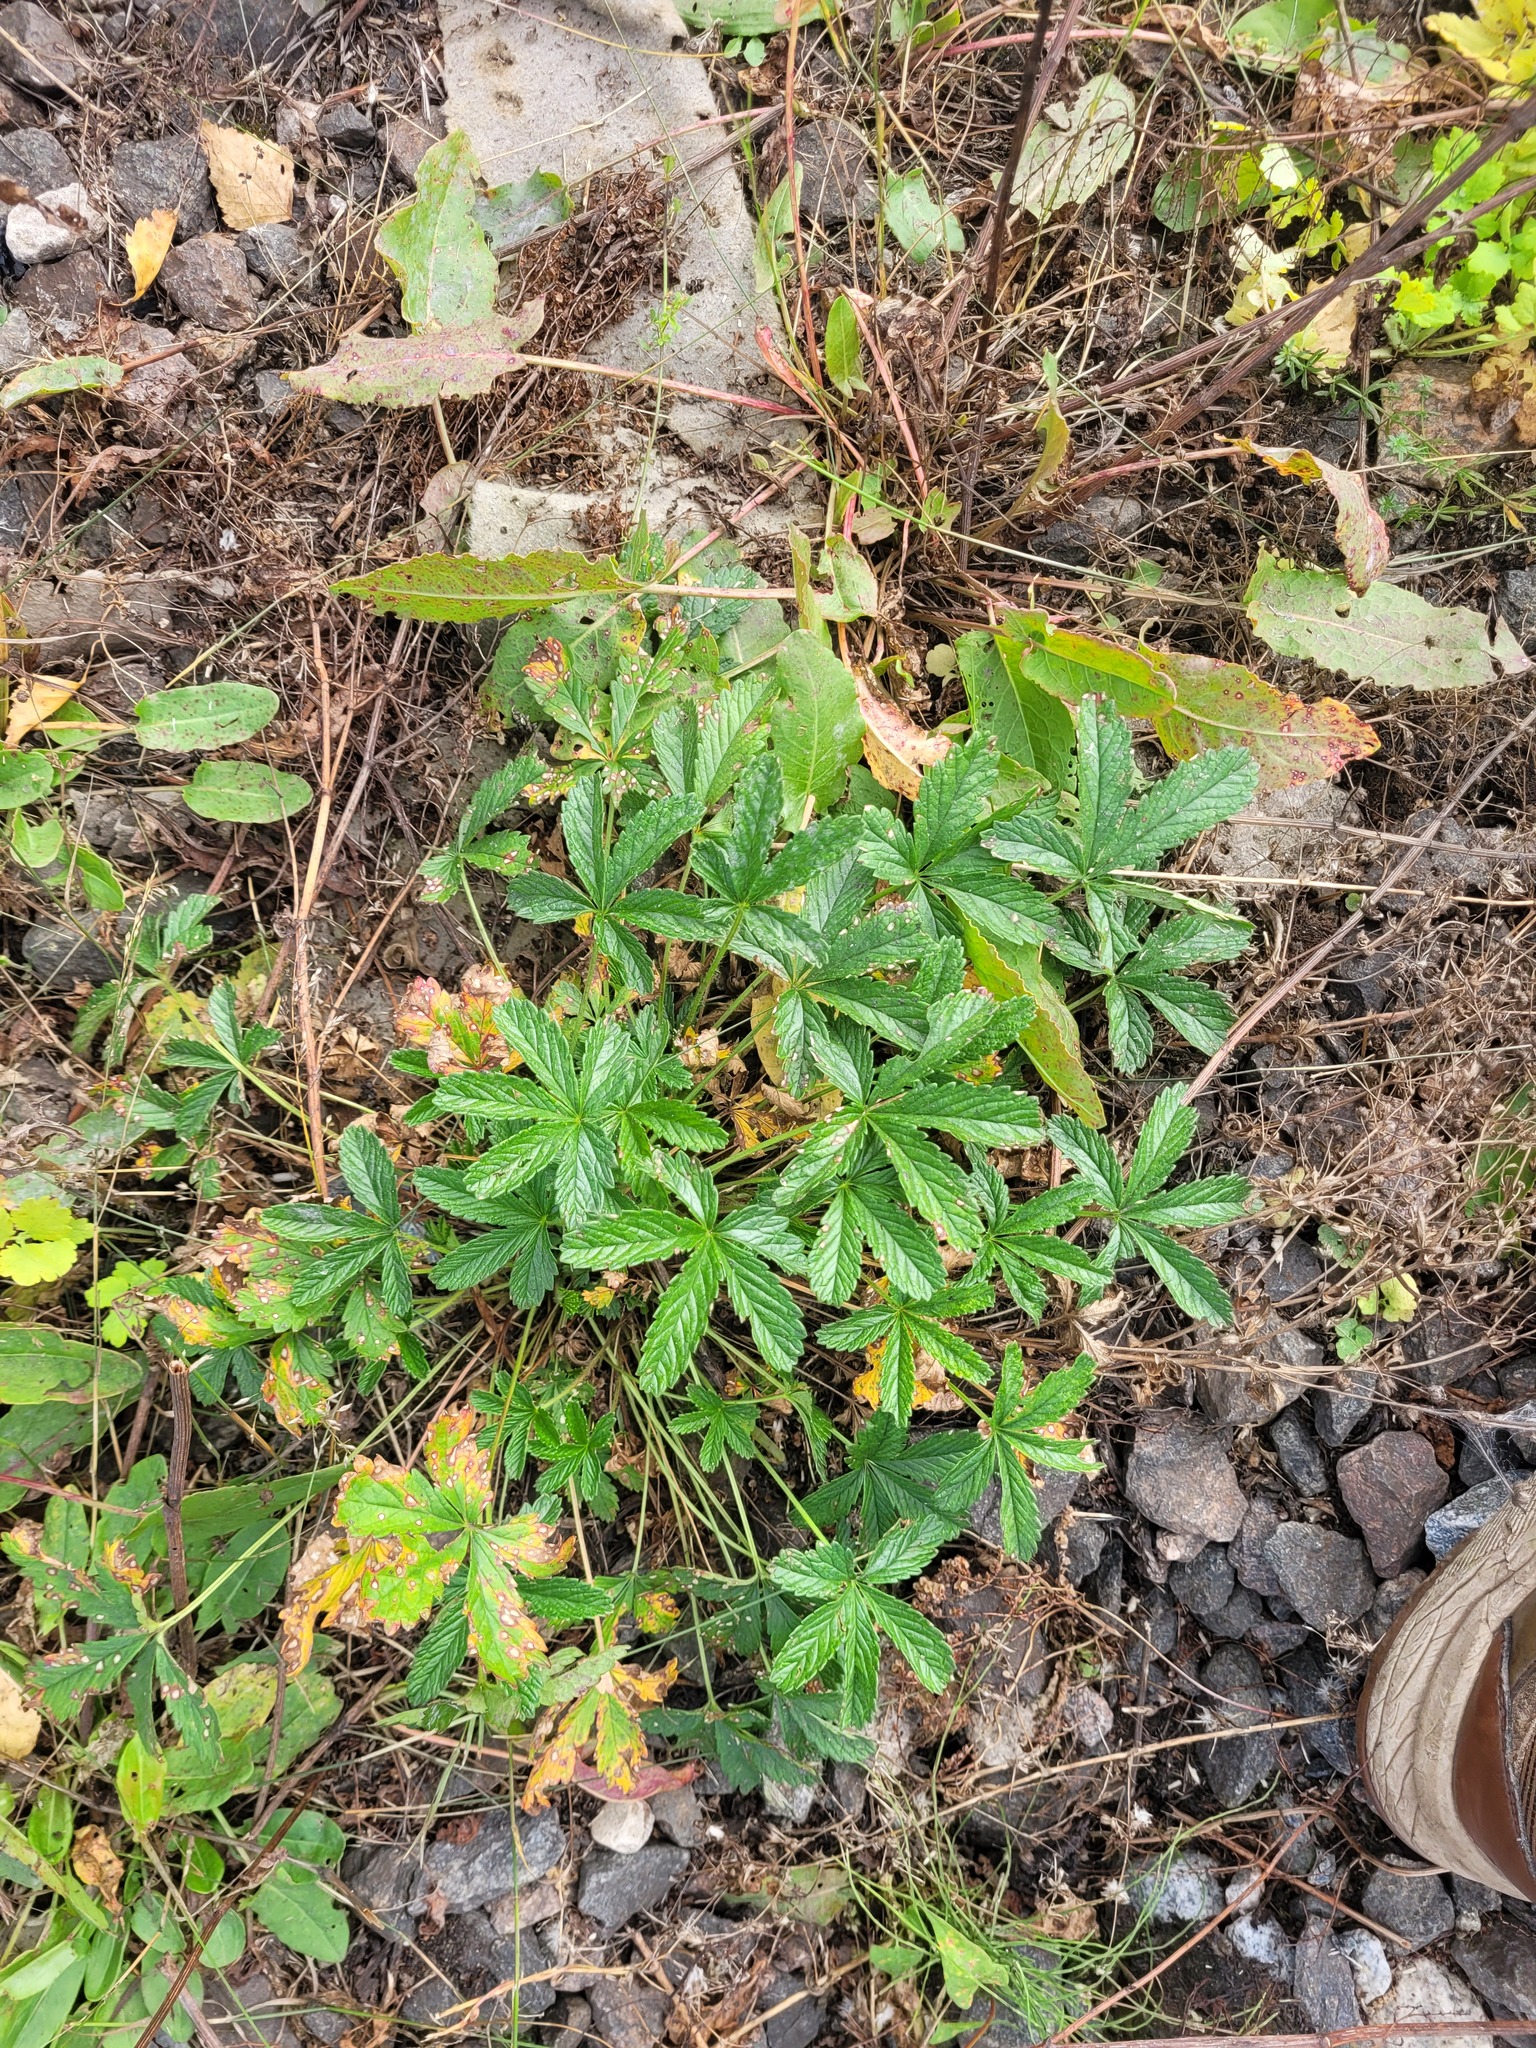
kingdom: Plantae
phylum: Tracheophyta
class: Magnoliopsida
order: Rosales
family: Rosaceae
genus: Potentilla
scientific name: Potentilla thuringiaca
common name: European cinquefoil
